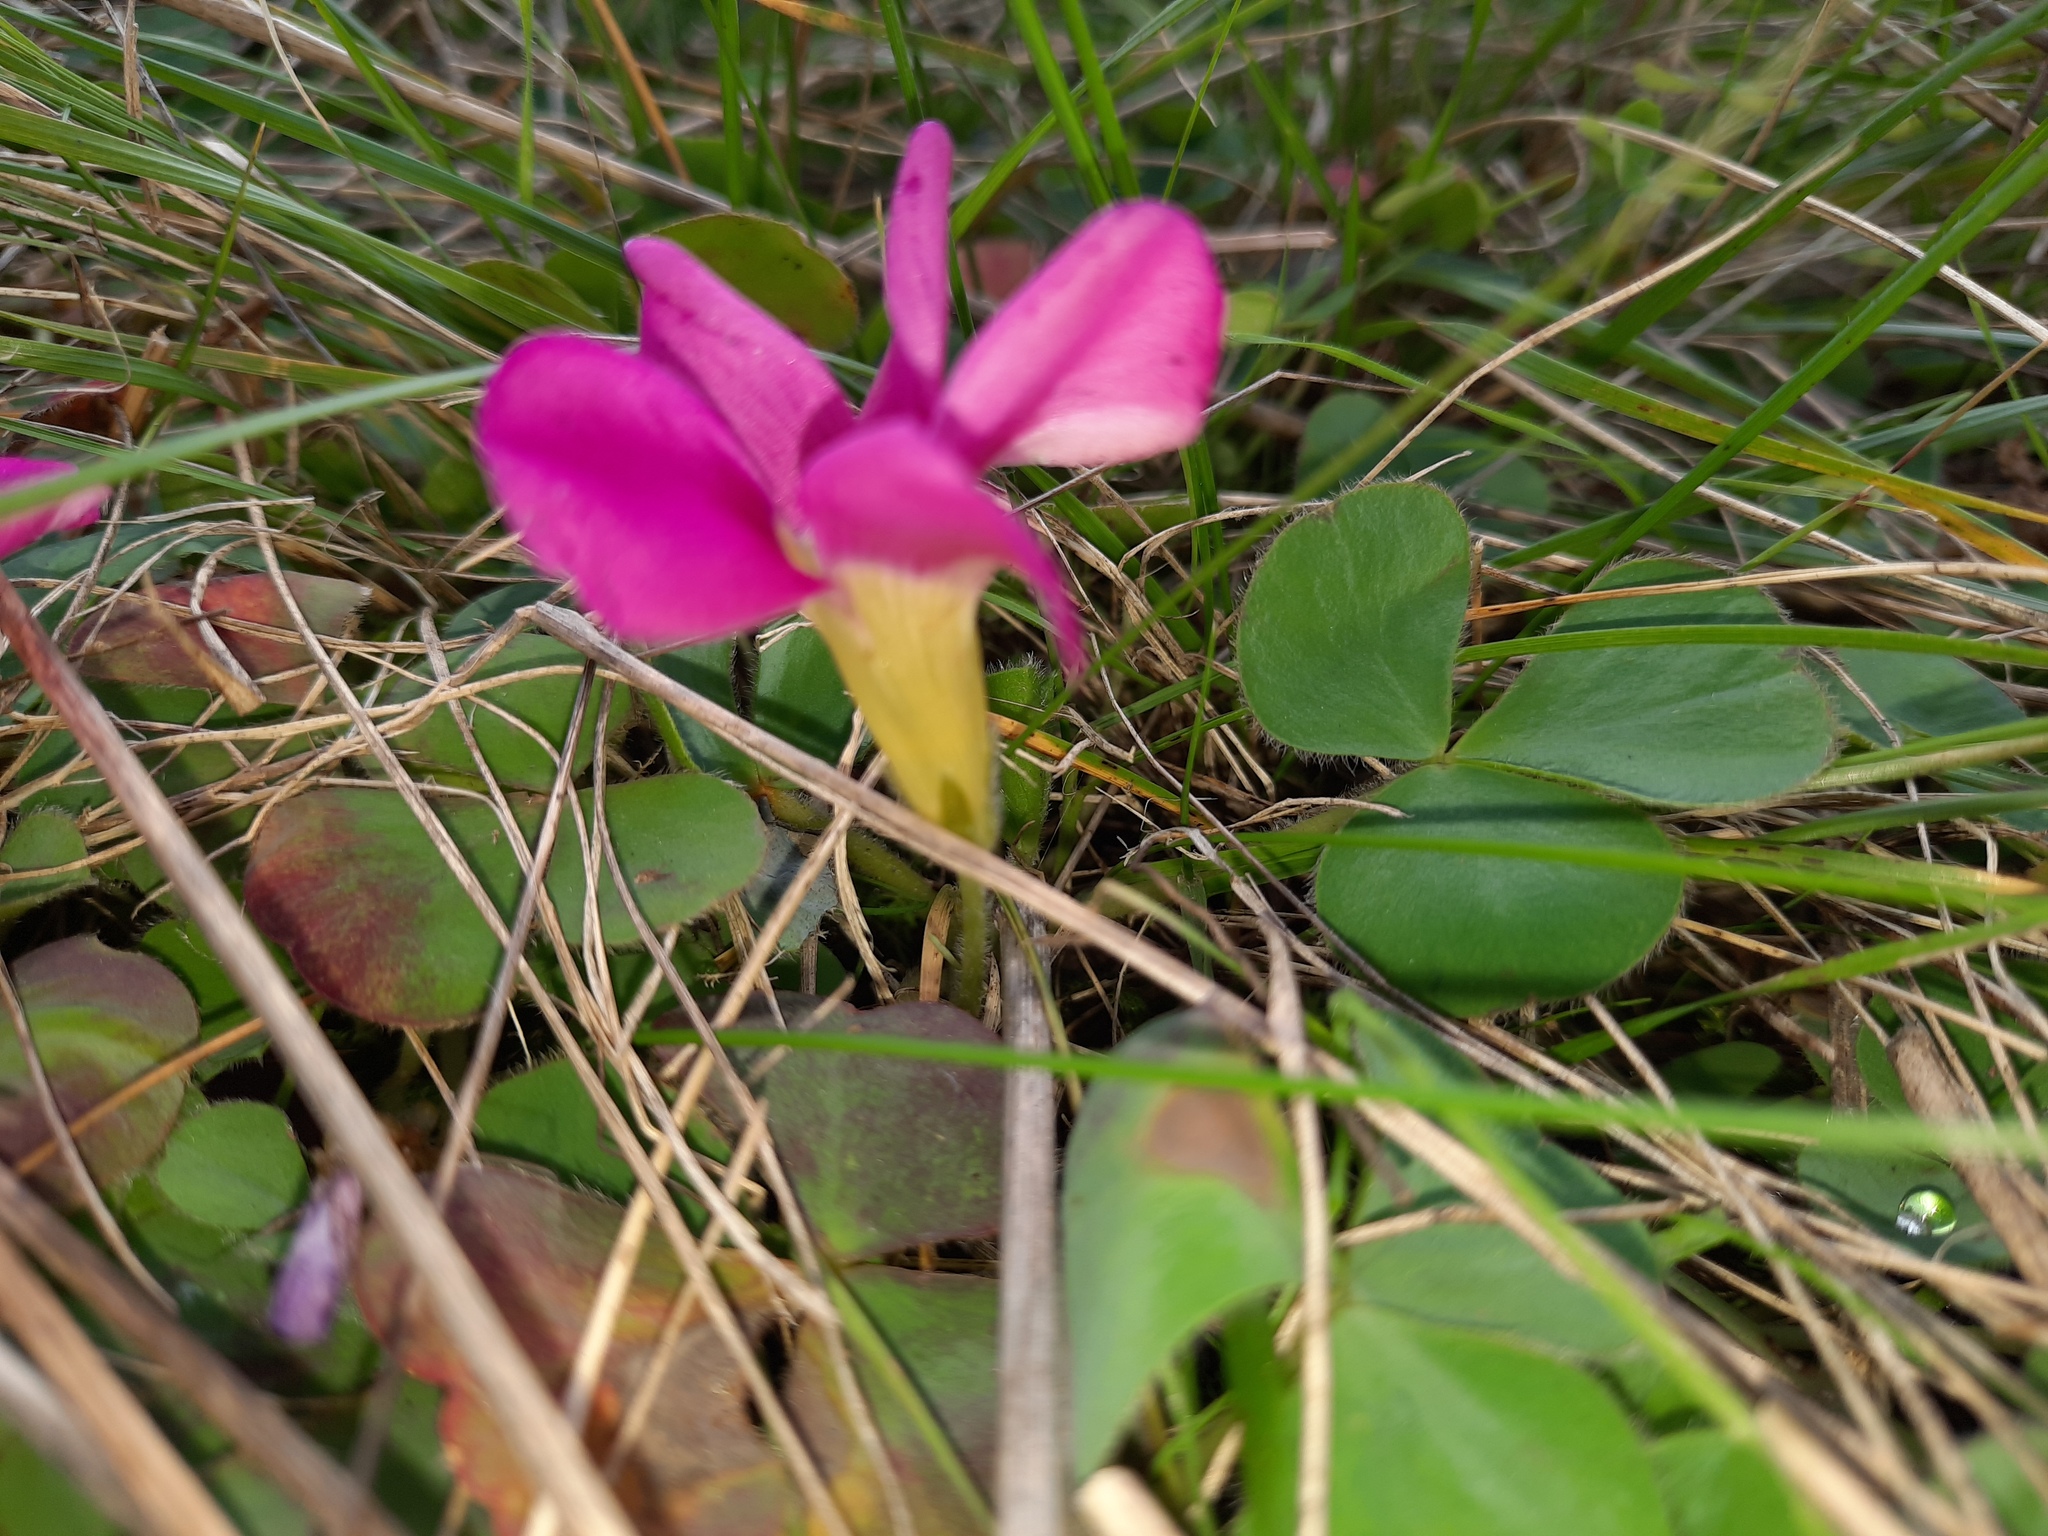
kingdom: Plantae
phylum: Tracheophyta
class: Magnoliopsida
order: Oxalidales
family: Oxalidaceae
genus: Oxalis
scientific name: Oxalis purpurea
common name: Purple woodsorrel
